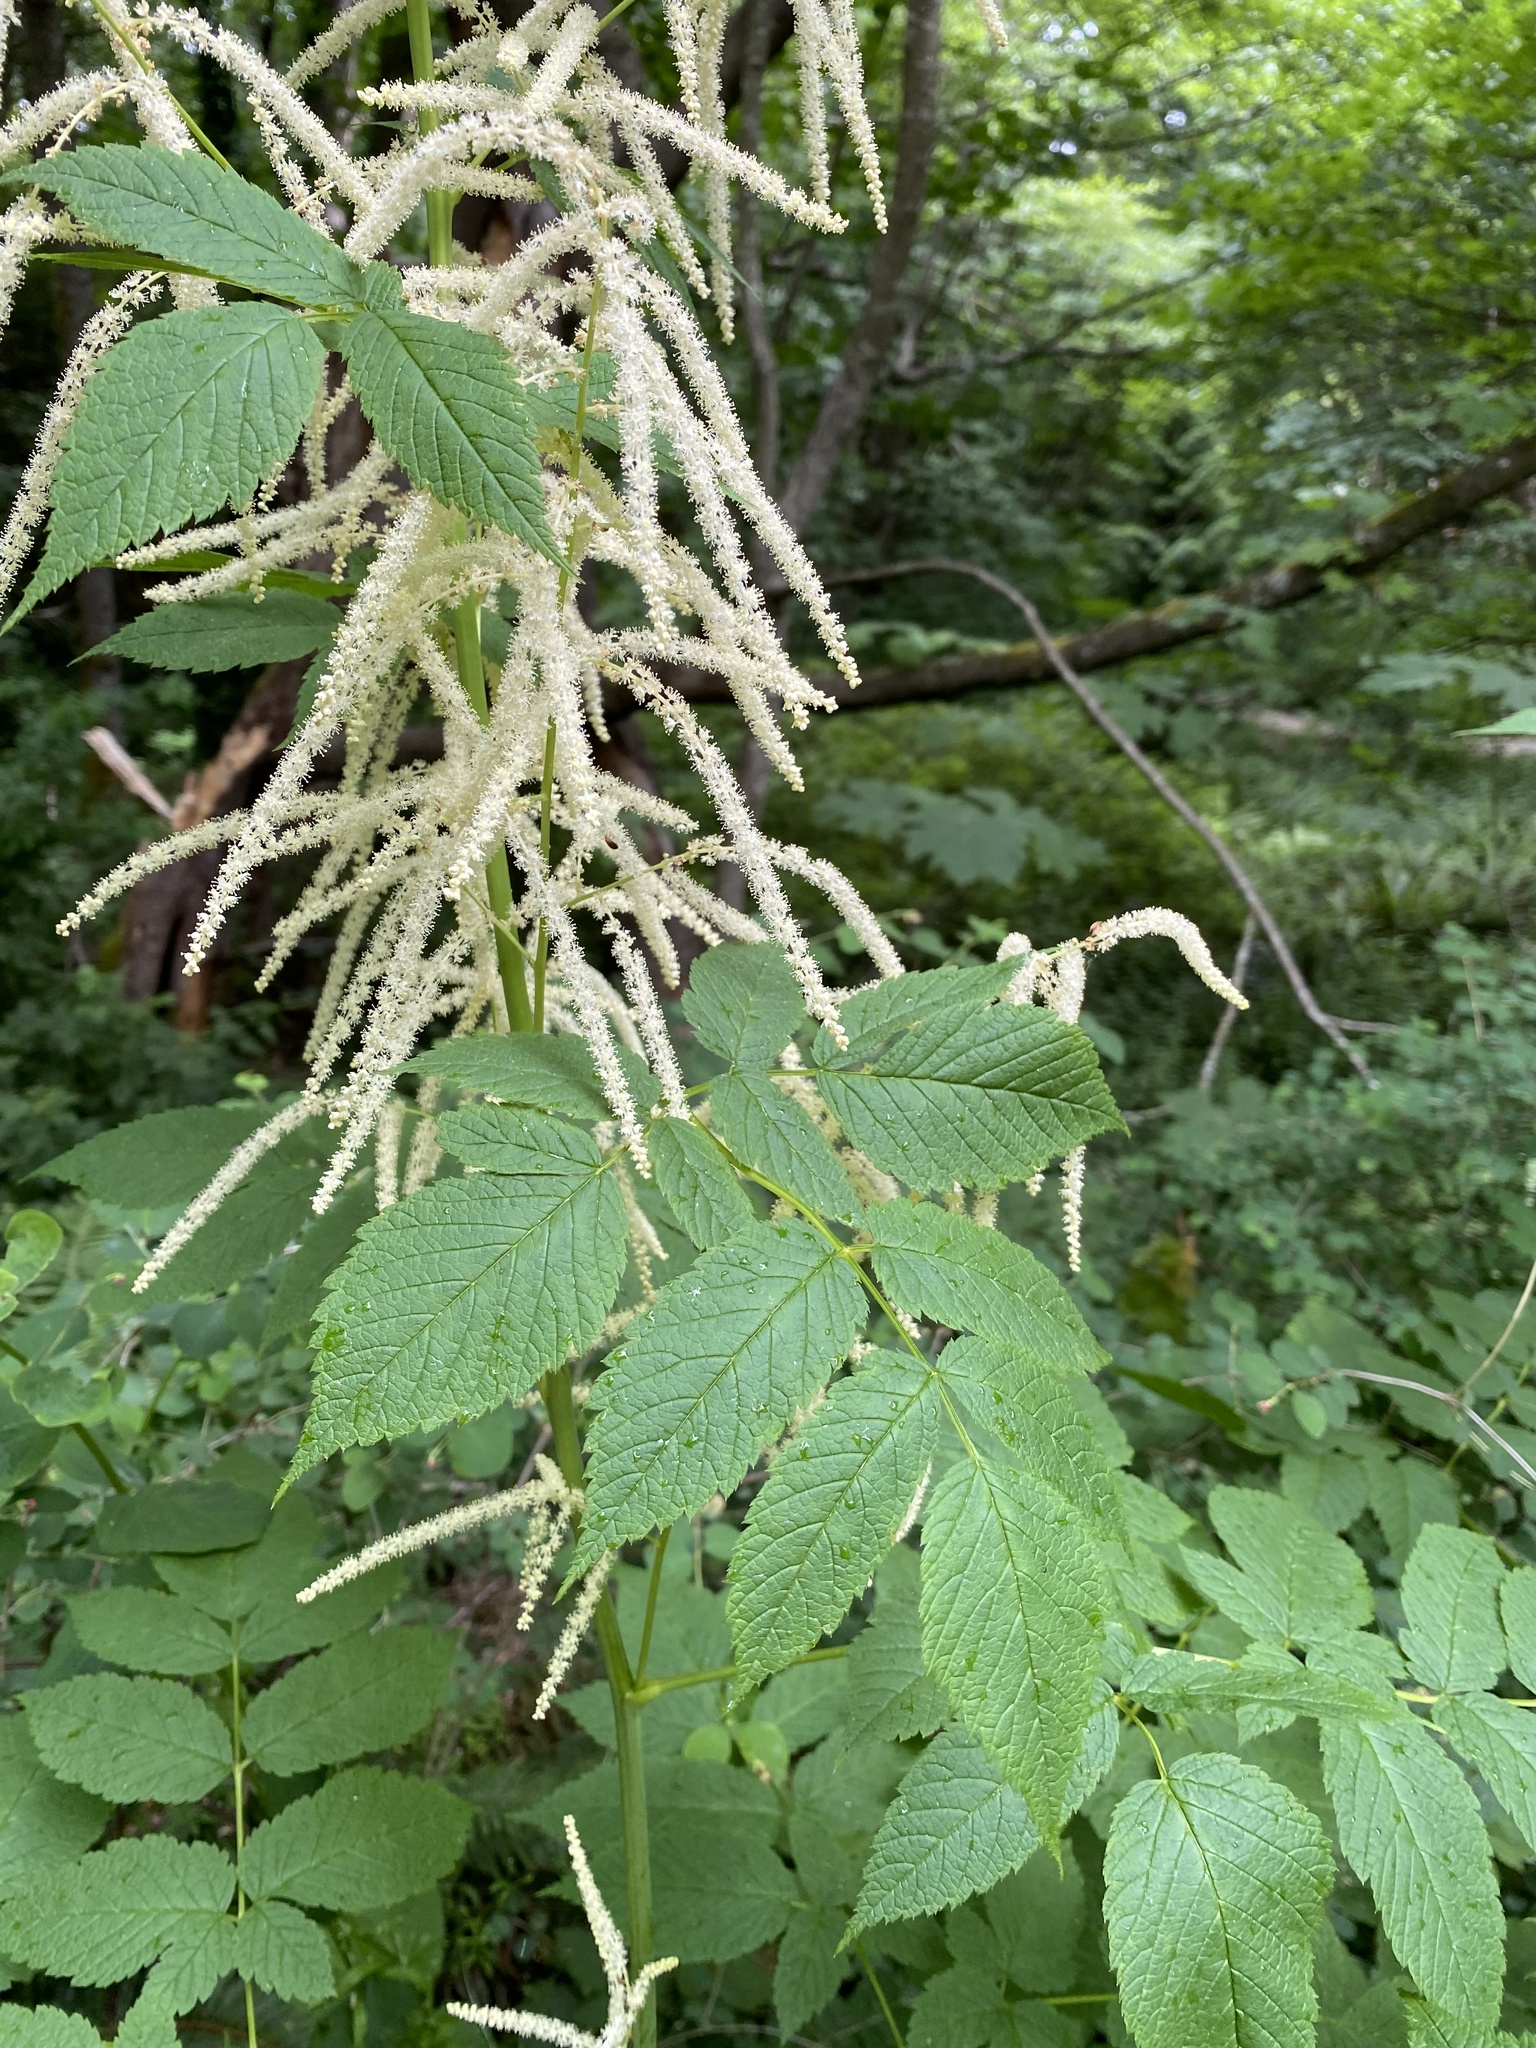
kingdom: Plantae
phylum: Tracheophyta
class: Magnoliopsida
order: Rosales
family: Rosaceae
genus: Aruncus
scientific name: Aruncus dioicus
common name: Buck's-beard
